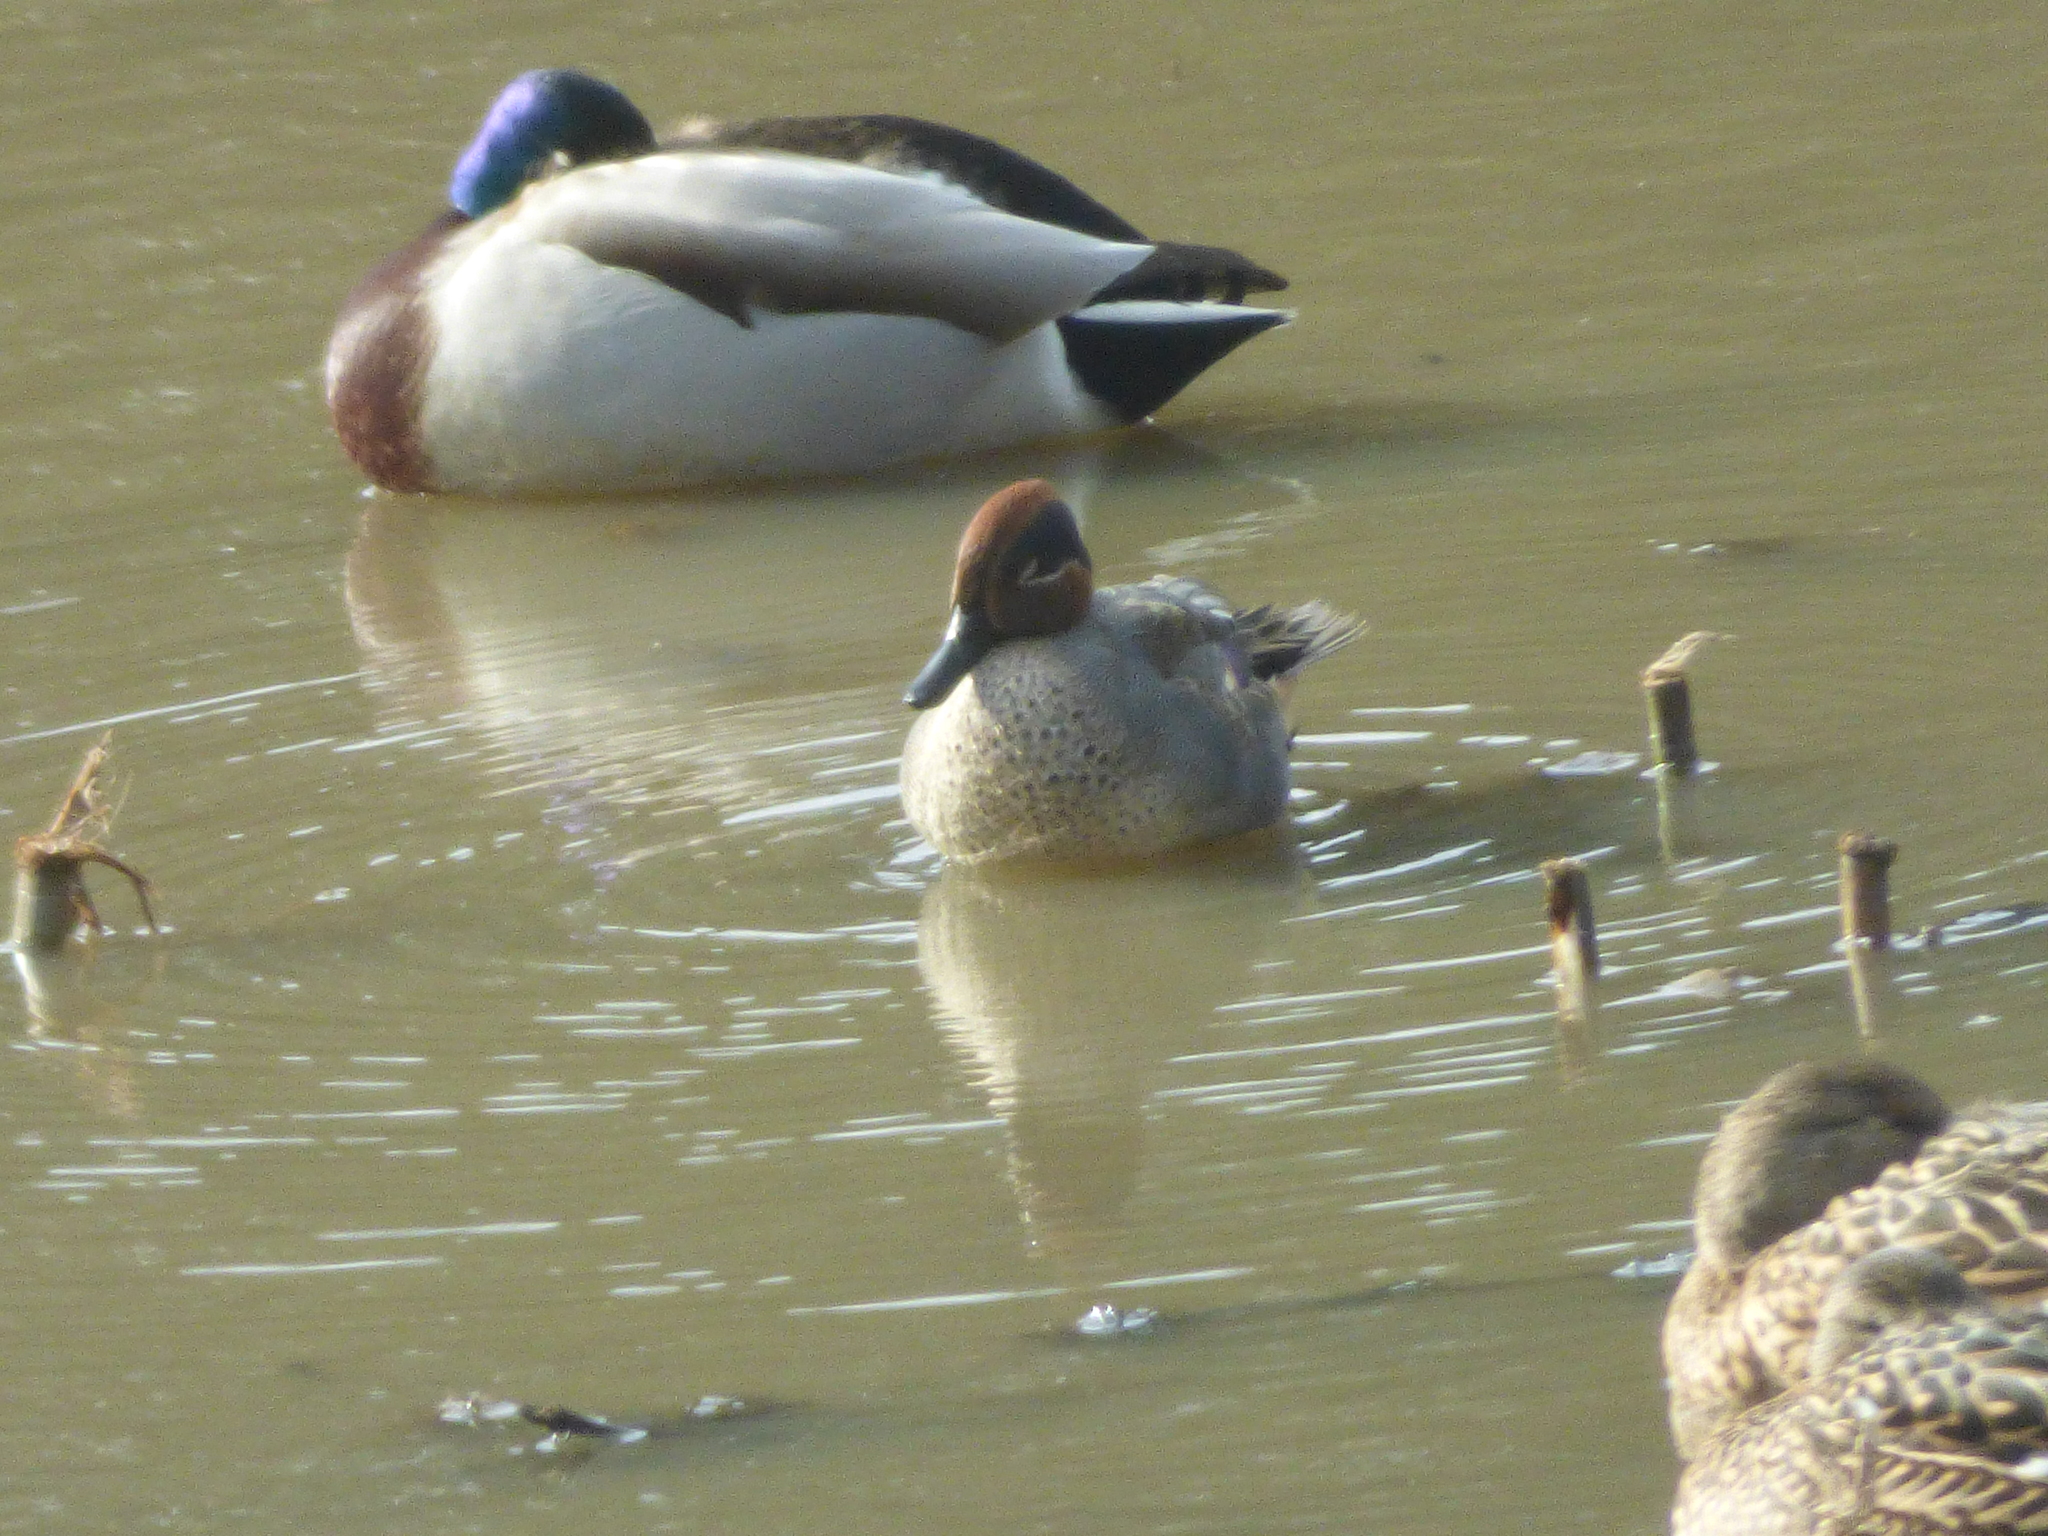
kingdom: Animalia
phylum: Chordata
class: Aves
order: Anseriformes
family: Anatidae
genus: Anas
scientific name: Anas crecca
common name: Eurasian teal
